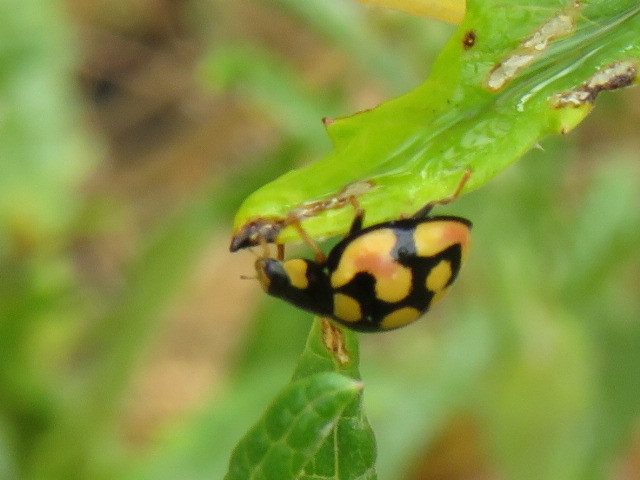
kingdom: Animalia
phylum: Arthropoda
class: Insecta
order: Coleoptera
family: Coccinellidae
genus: Cheilomenes
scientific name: Cheilomenes sulphurea
